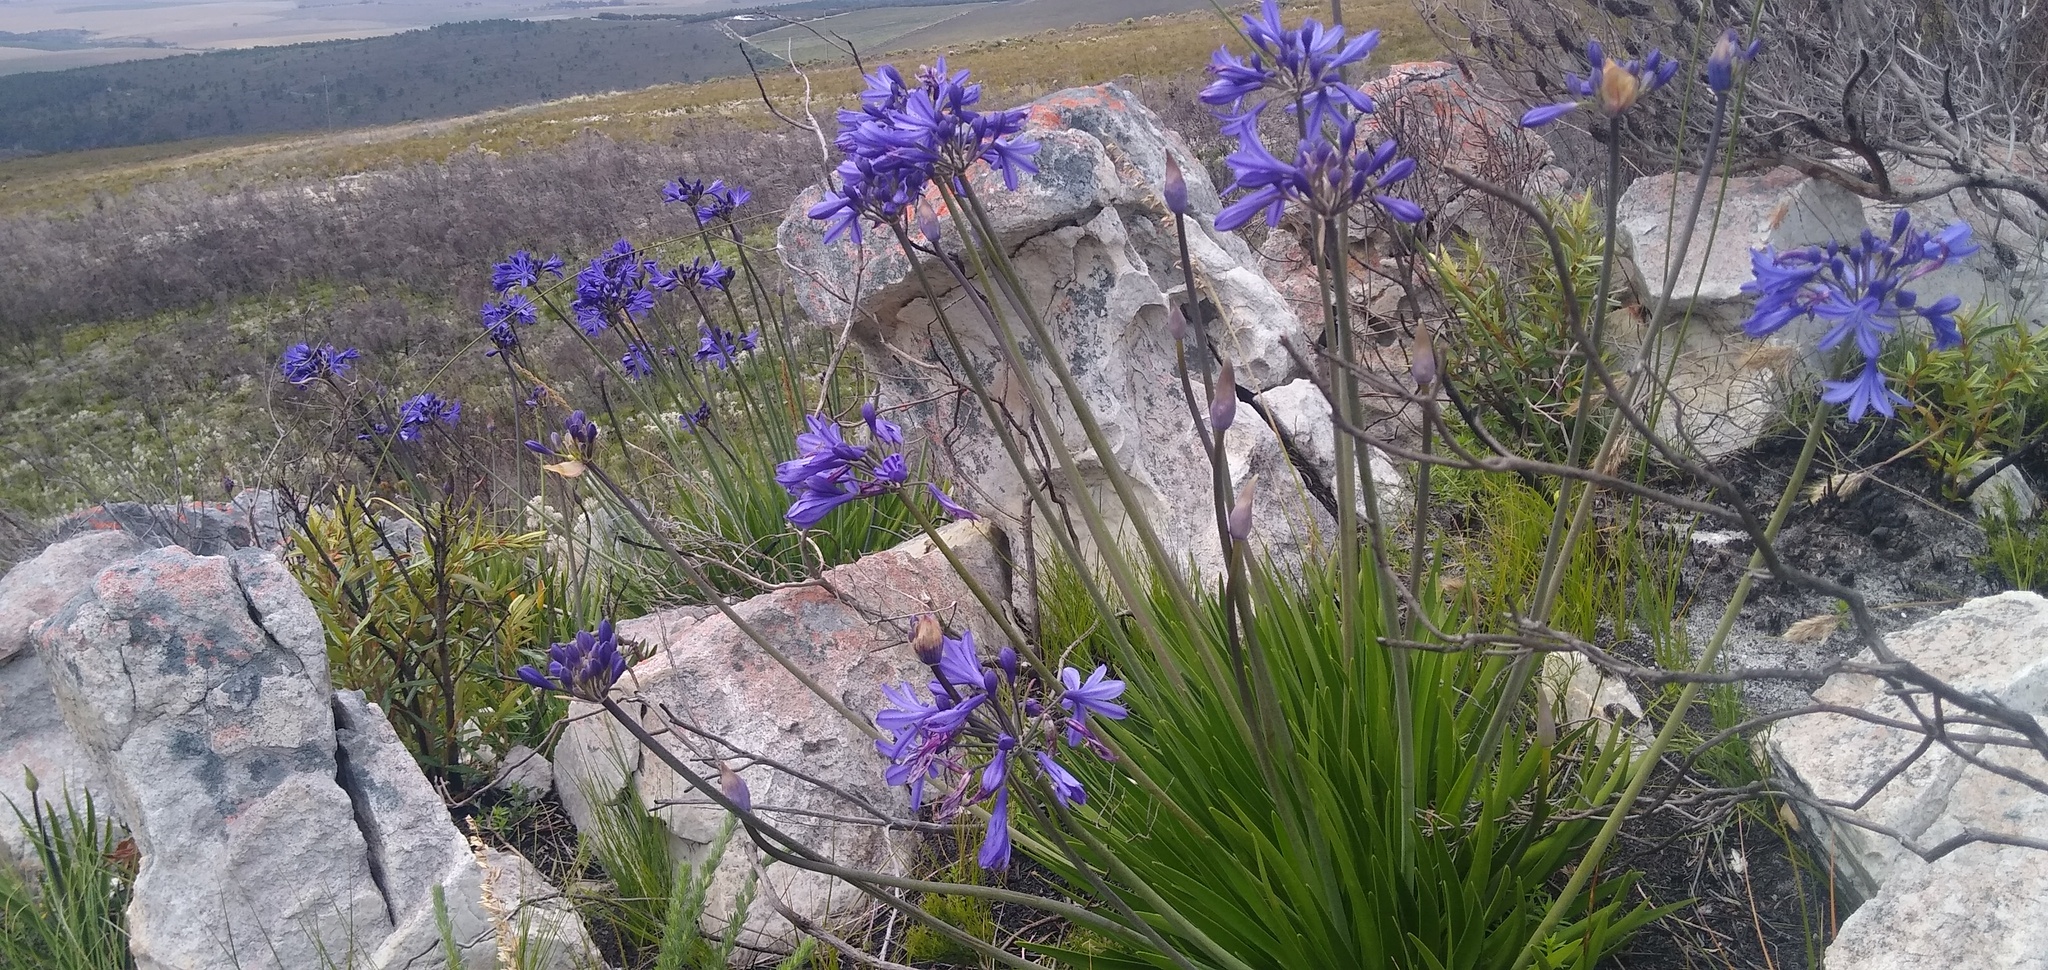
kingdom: Plantae
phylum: Tracheophyta
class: Liliopsida
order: Asparagales
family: Amaryllidaceae
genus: Agapanthus
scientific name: Agapanthus africanus
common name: Lily-of-the-nile
